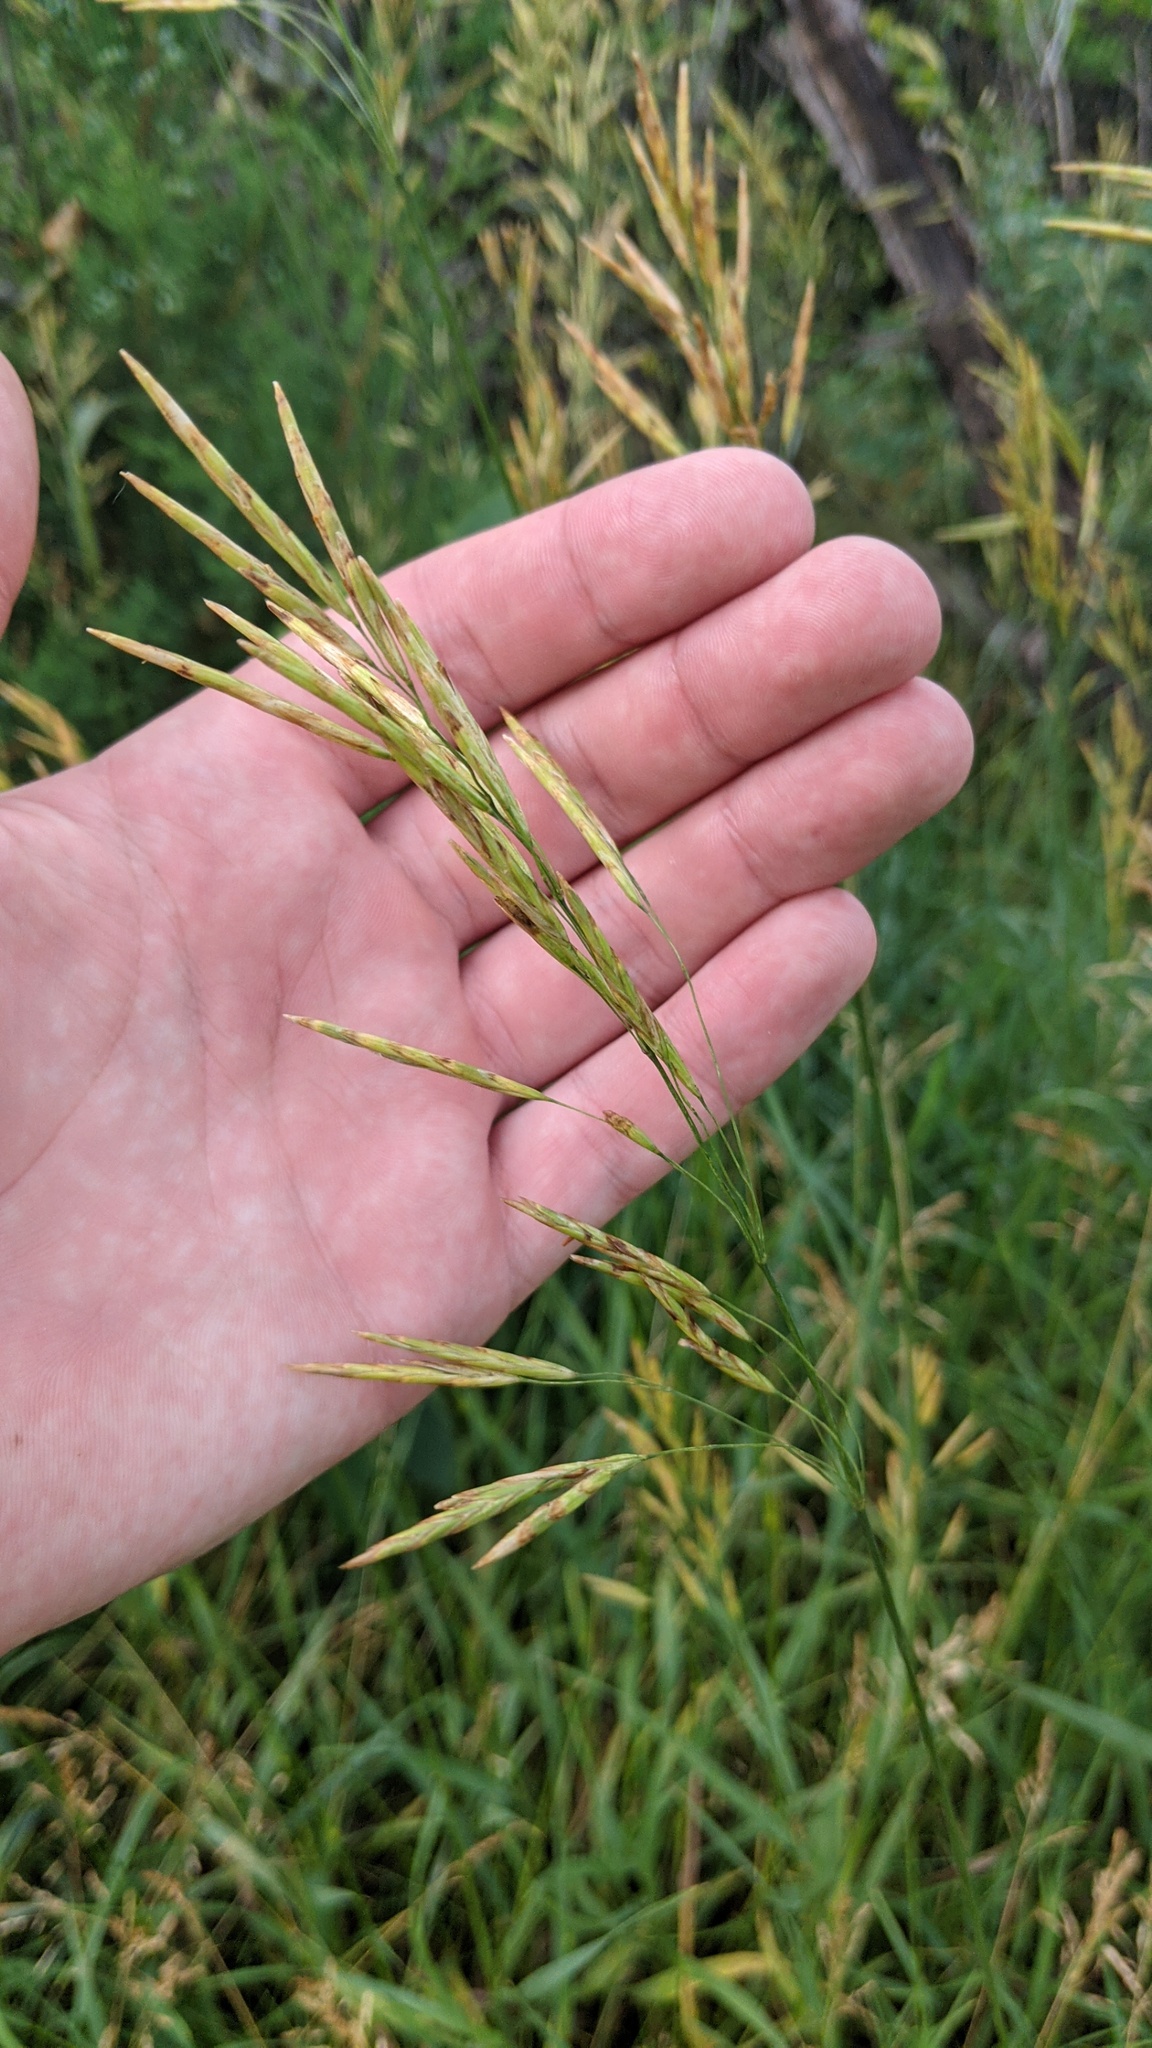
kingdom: Plantae
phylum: Tracheophyta
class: Liliopsida
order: Poales
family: Poaceae
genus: Bromus
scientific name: Bromus inermis
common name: Smooth brome
